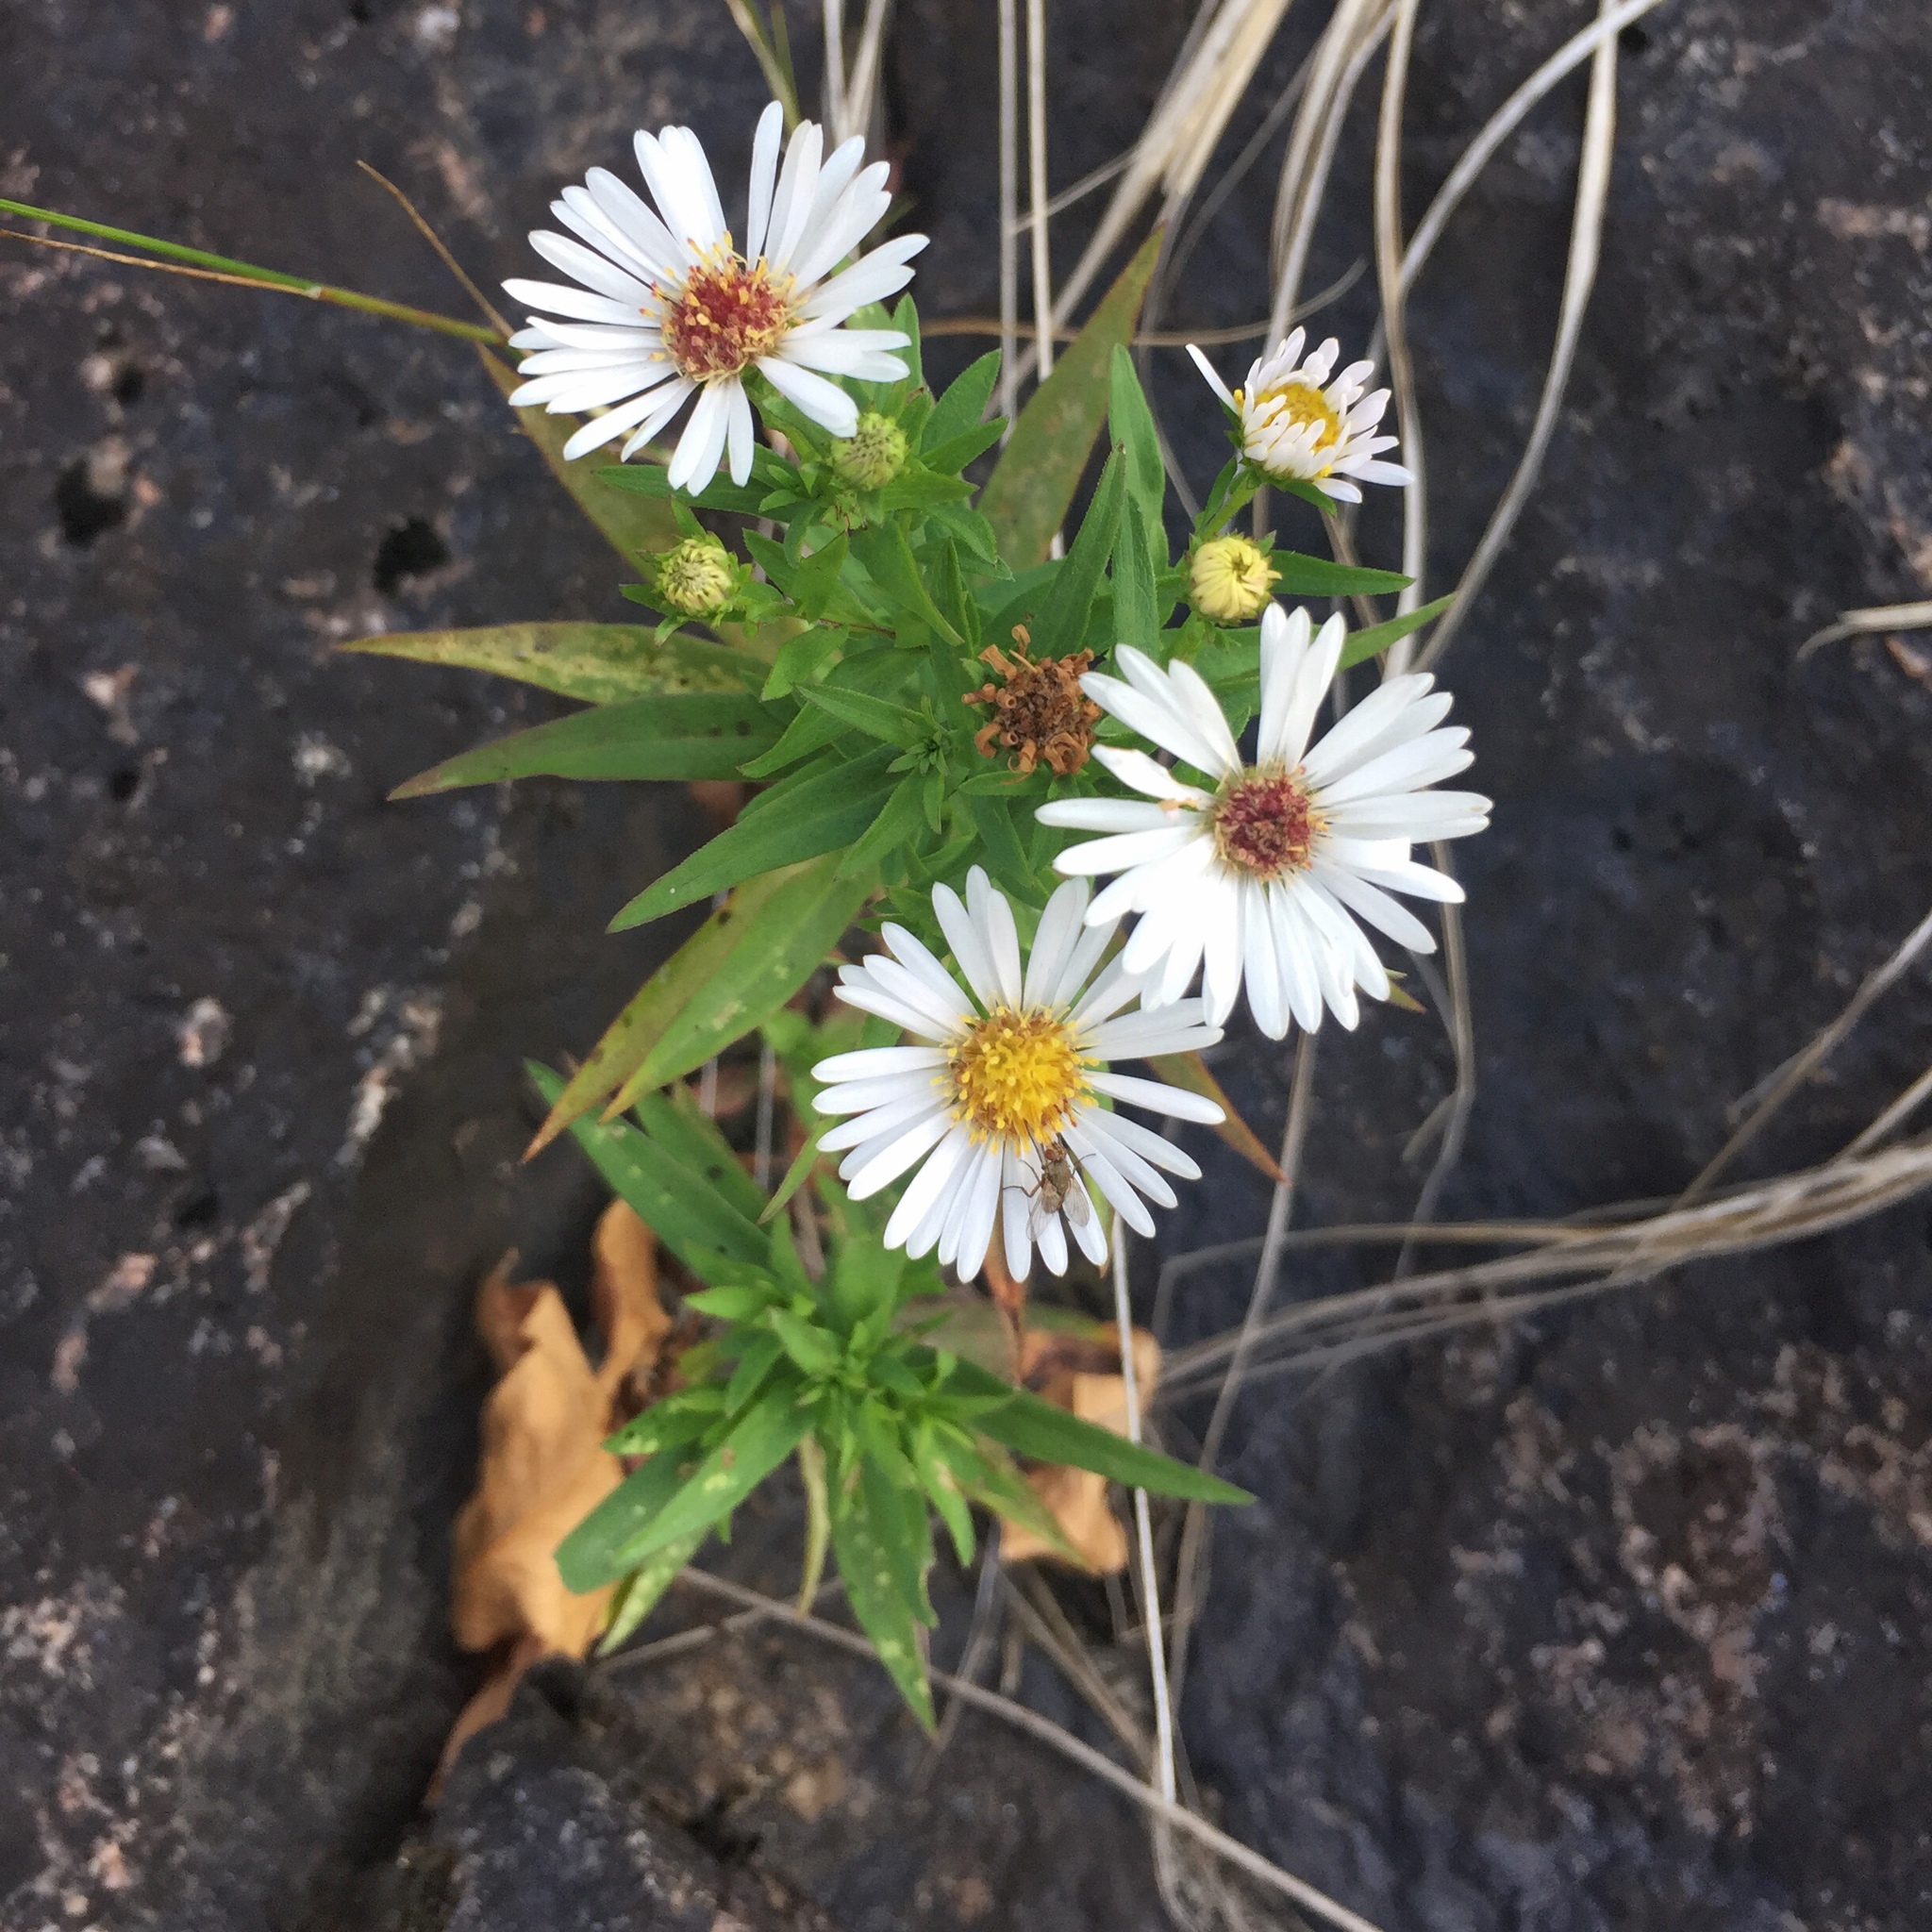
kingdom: Plantae
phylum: Tracheophyta
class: Magnoliopsida
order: Asterales
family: Asteraceae
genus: Symphyotrichum
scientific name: Symphyotrichum lanceolatum
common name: Panicled aster
